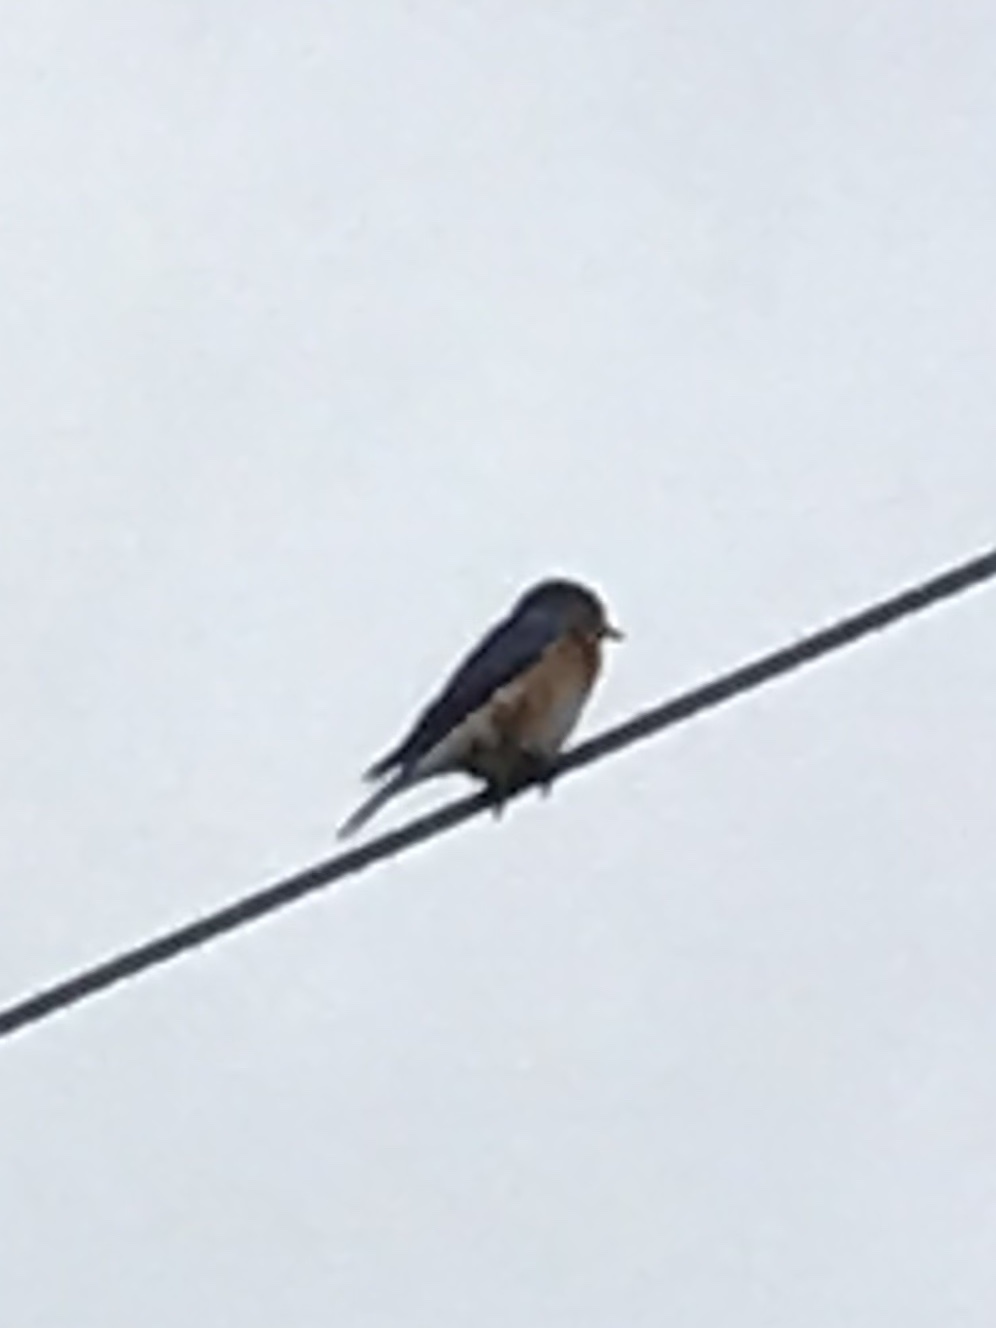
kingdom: Animalia
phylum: Chordata
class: Aves
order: Passeriformes
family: Turdidae
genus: Sialia
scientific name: Sialia sialis
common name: Eastern bluebird
